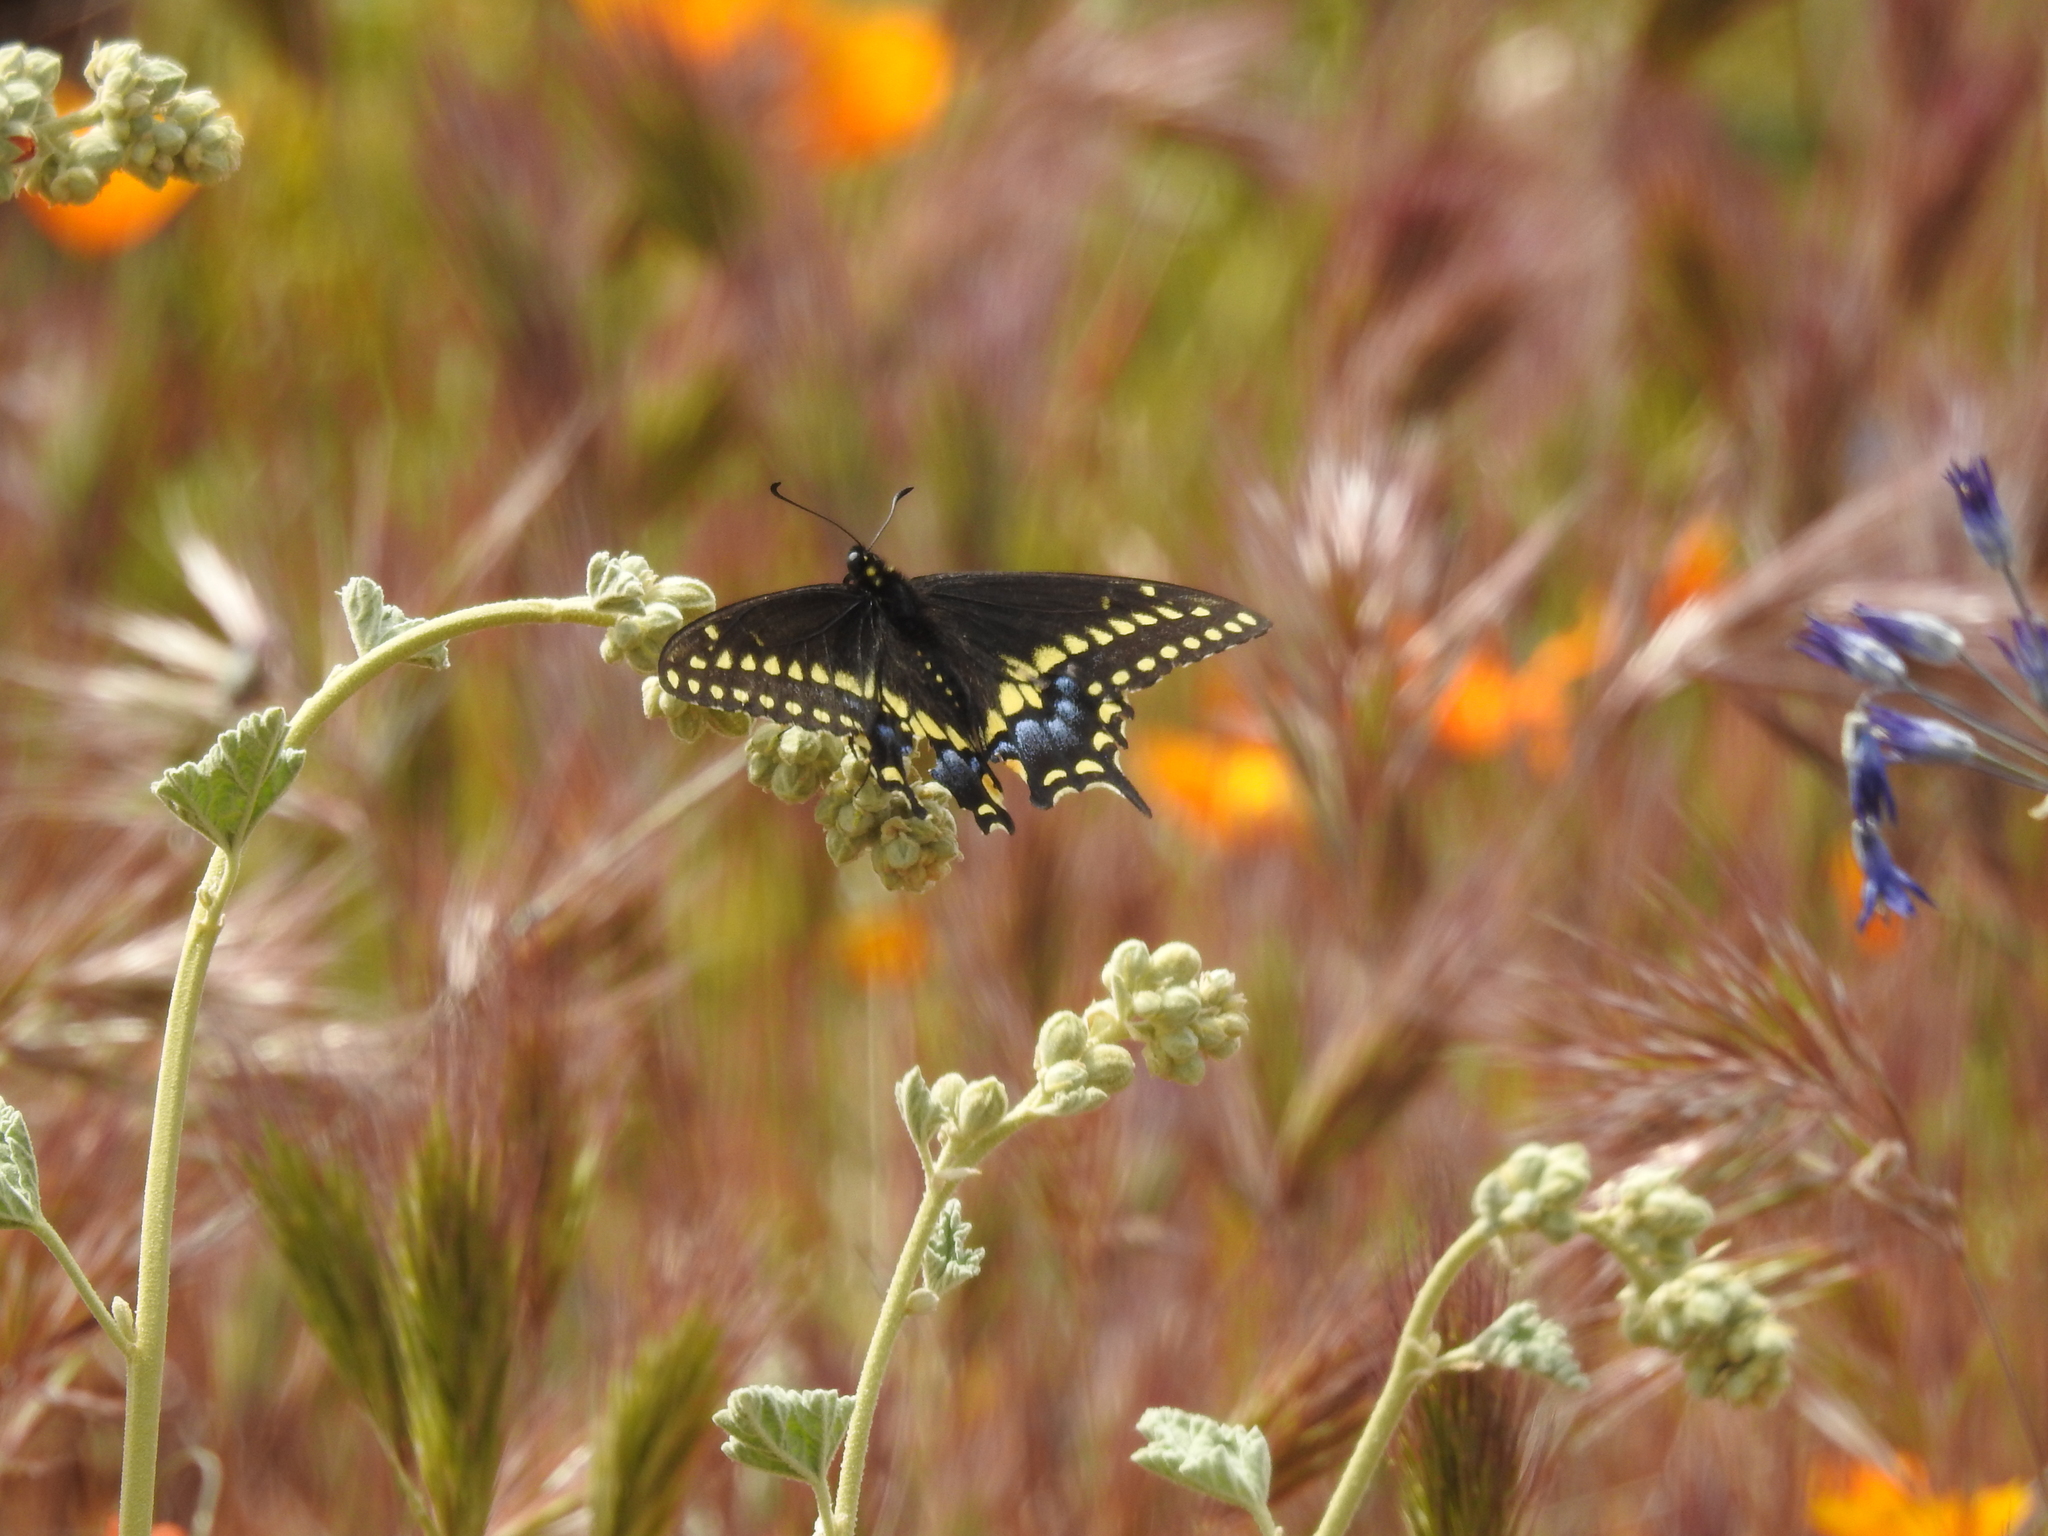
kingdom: Animalia
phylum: Arthropoda
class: Insecta
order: Lepidoptera
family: Papilionidae
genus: Papilio
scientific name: Papilio polyxenes
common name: Black swallowtail
